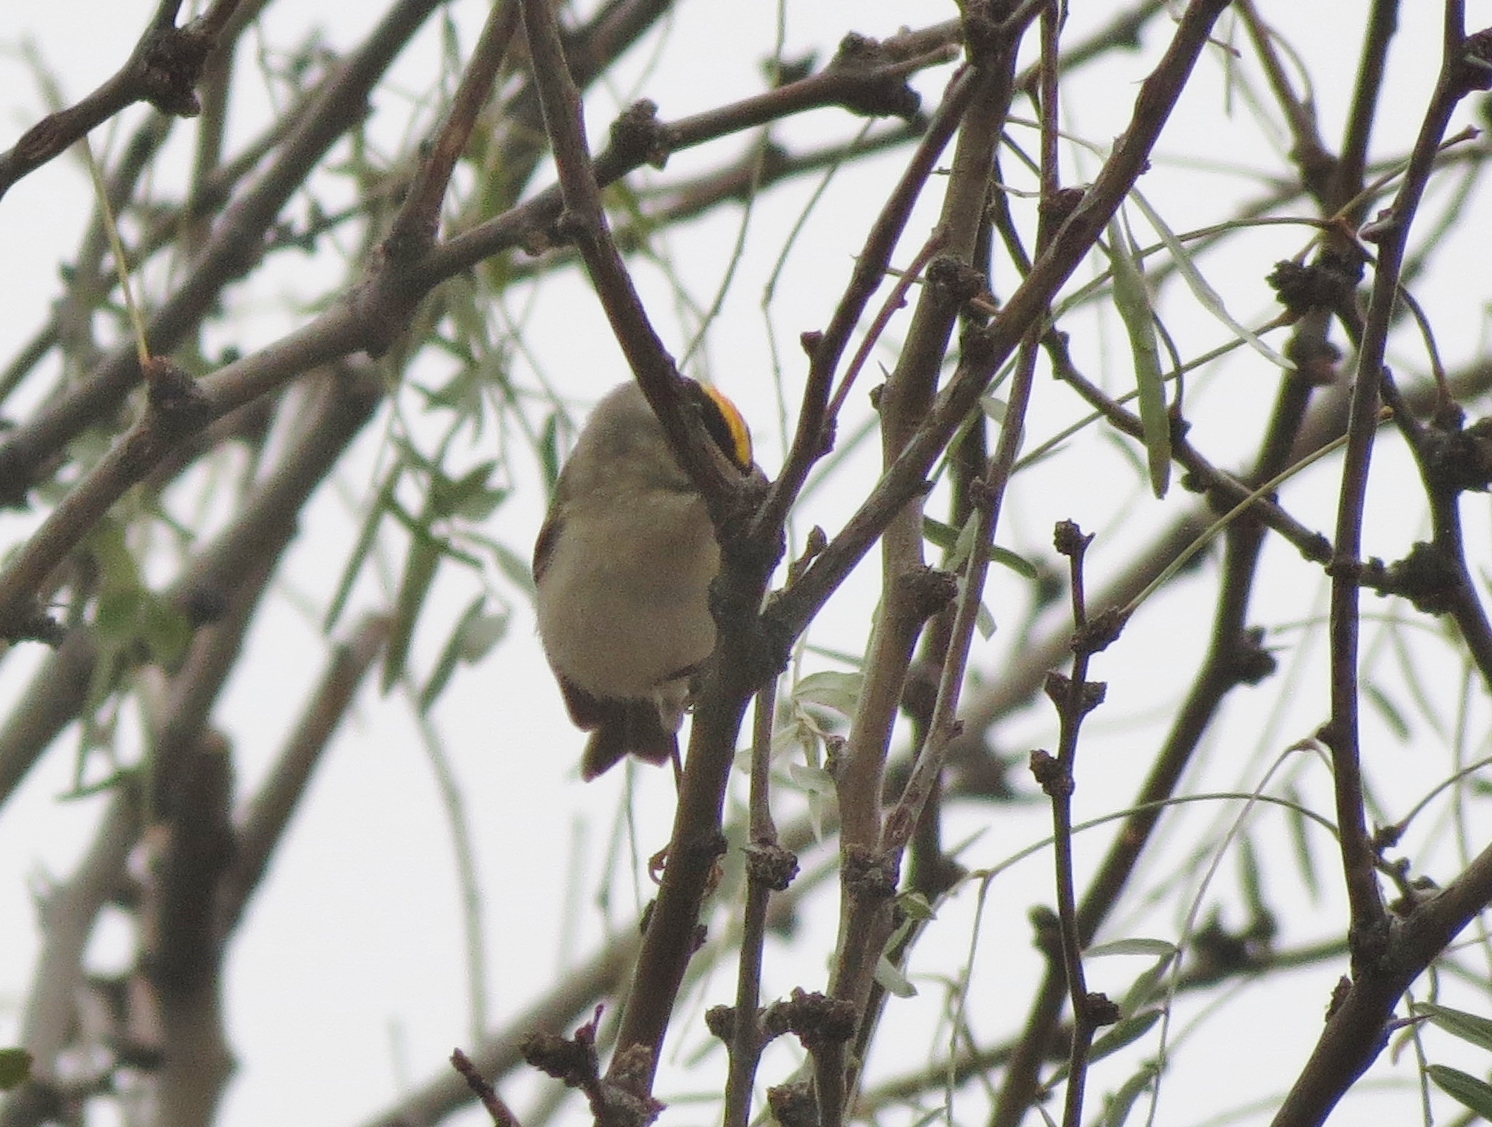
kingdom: Animalia
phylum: Chordata
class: Aves
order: Passeriformes
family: Regulidae
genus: Regulus
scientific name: Regulus satrapa
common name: Golden-crowned kinglet
